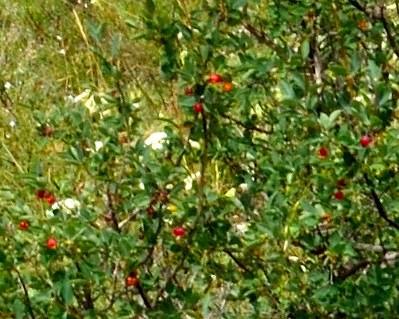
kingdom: Plantae
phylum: Tracheophyta
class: Magnoliopsida
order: Dipsacales
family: Caprifoliaceae
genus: Lonicera
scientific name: Lonicera microphylla
